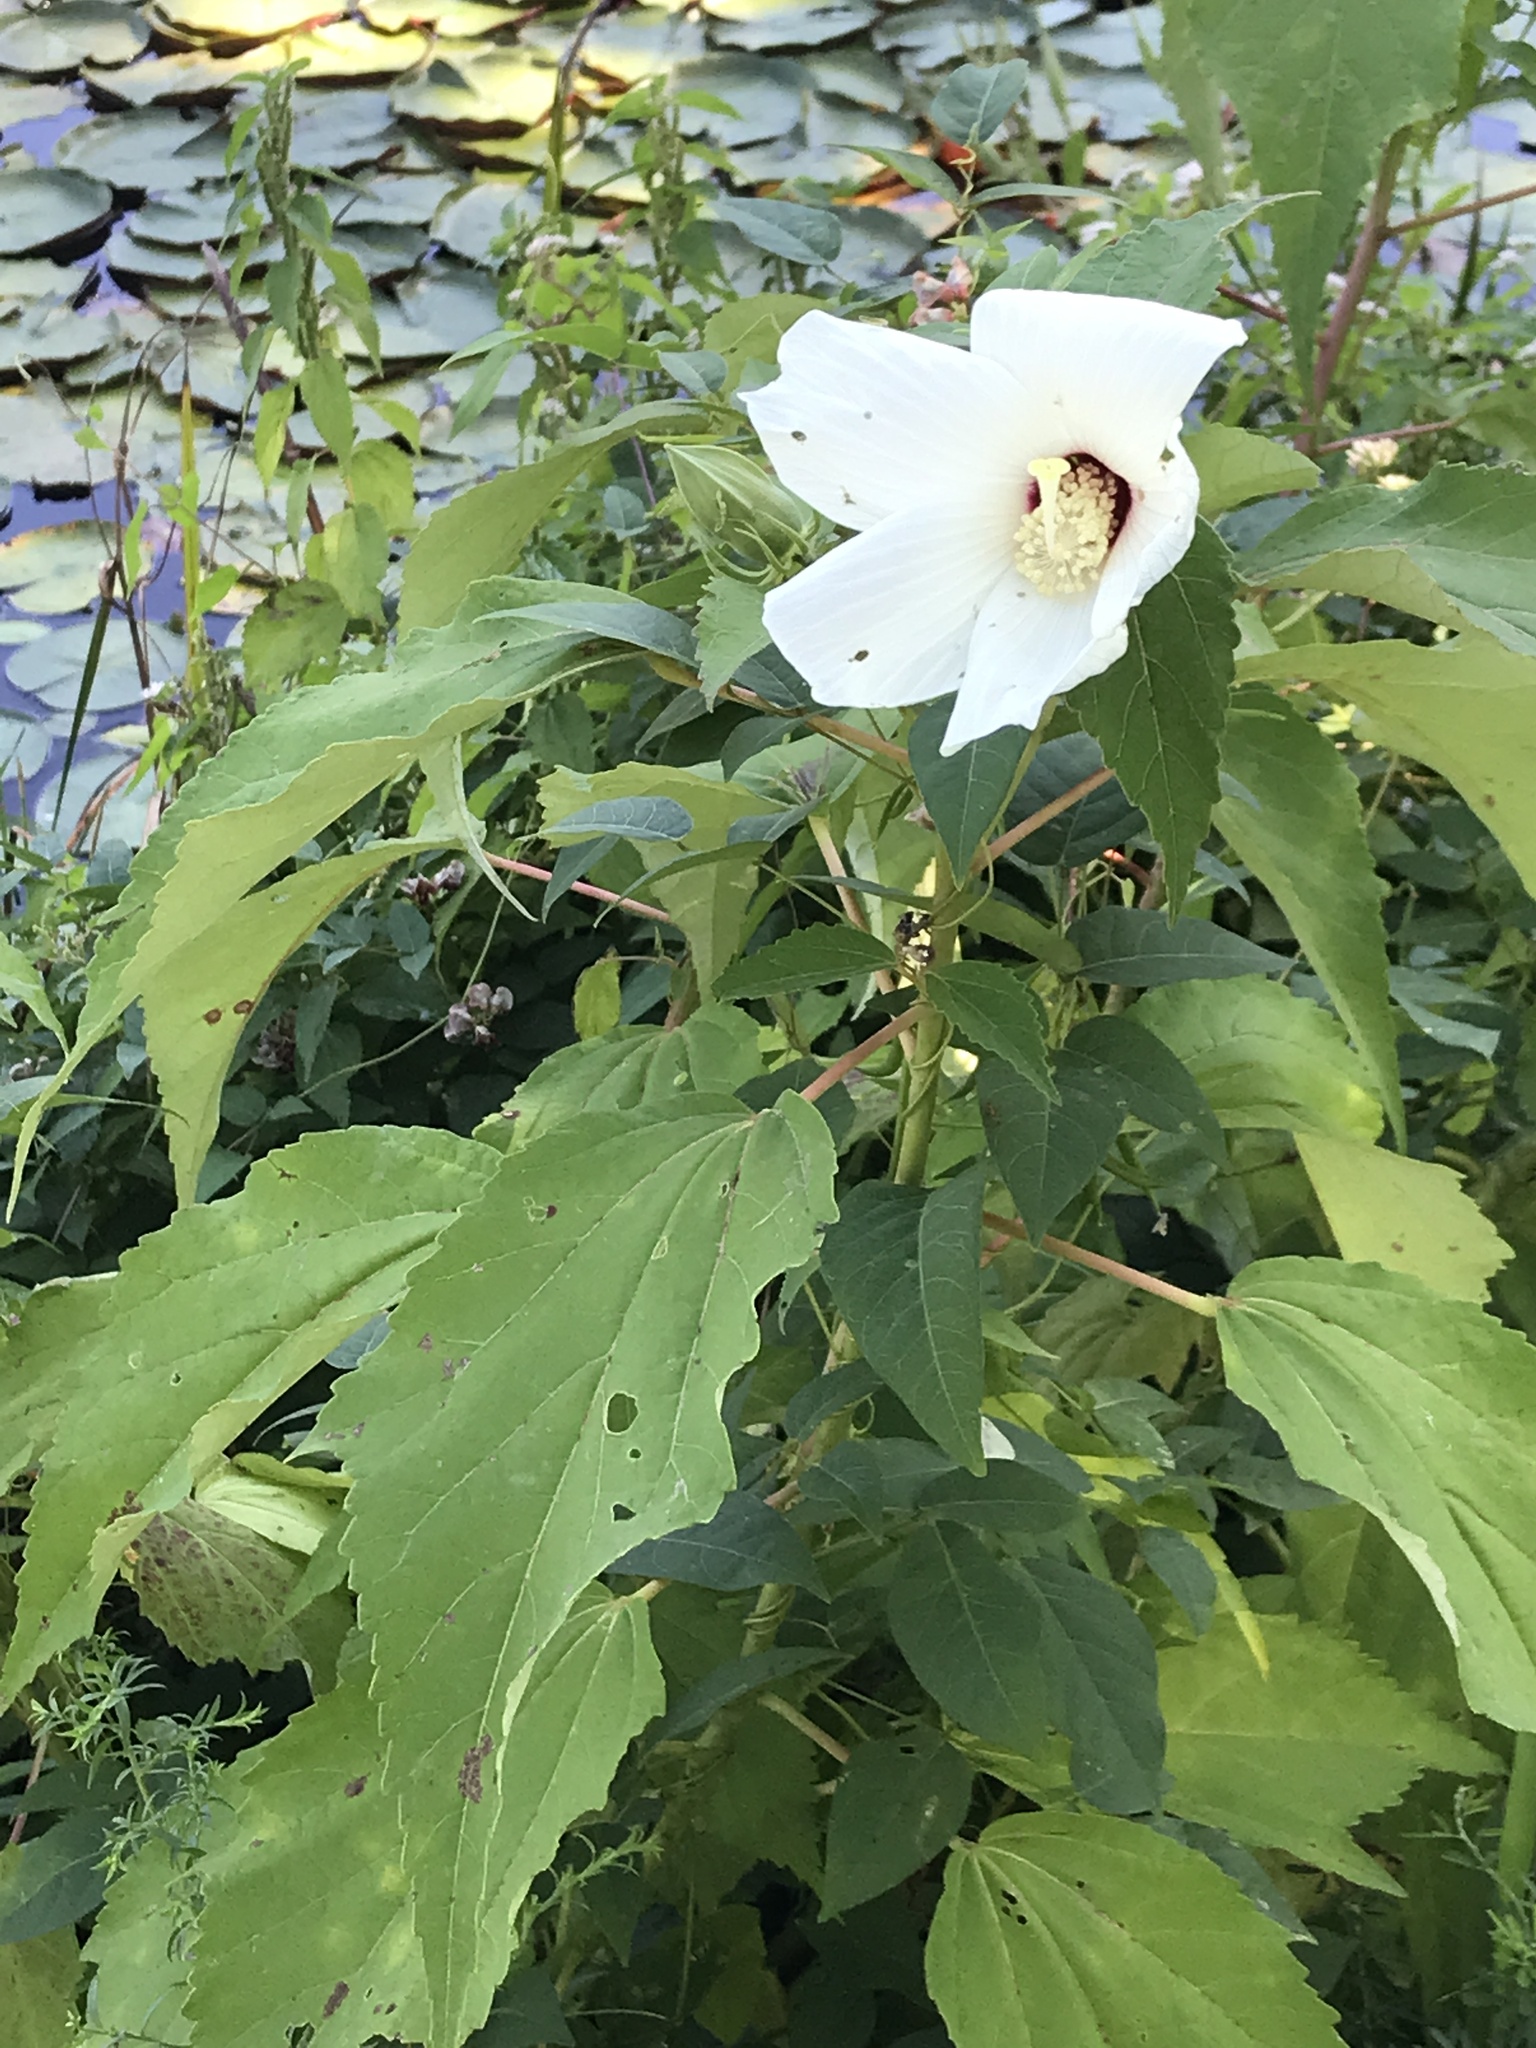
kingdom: Plantae
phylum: Tracheophyta
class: Magnoliopsida
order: Malvales
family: Malvaceae
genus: Hibiscus
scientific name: Hibiscus moscheutos
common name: Common rose-mallow
